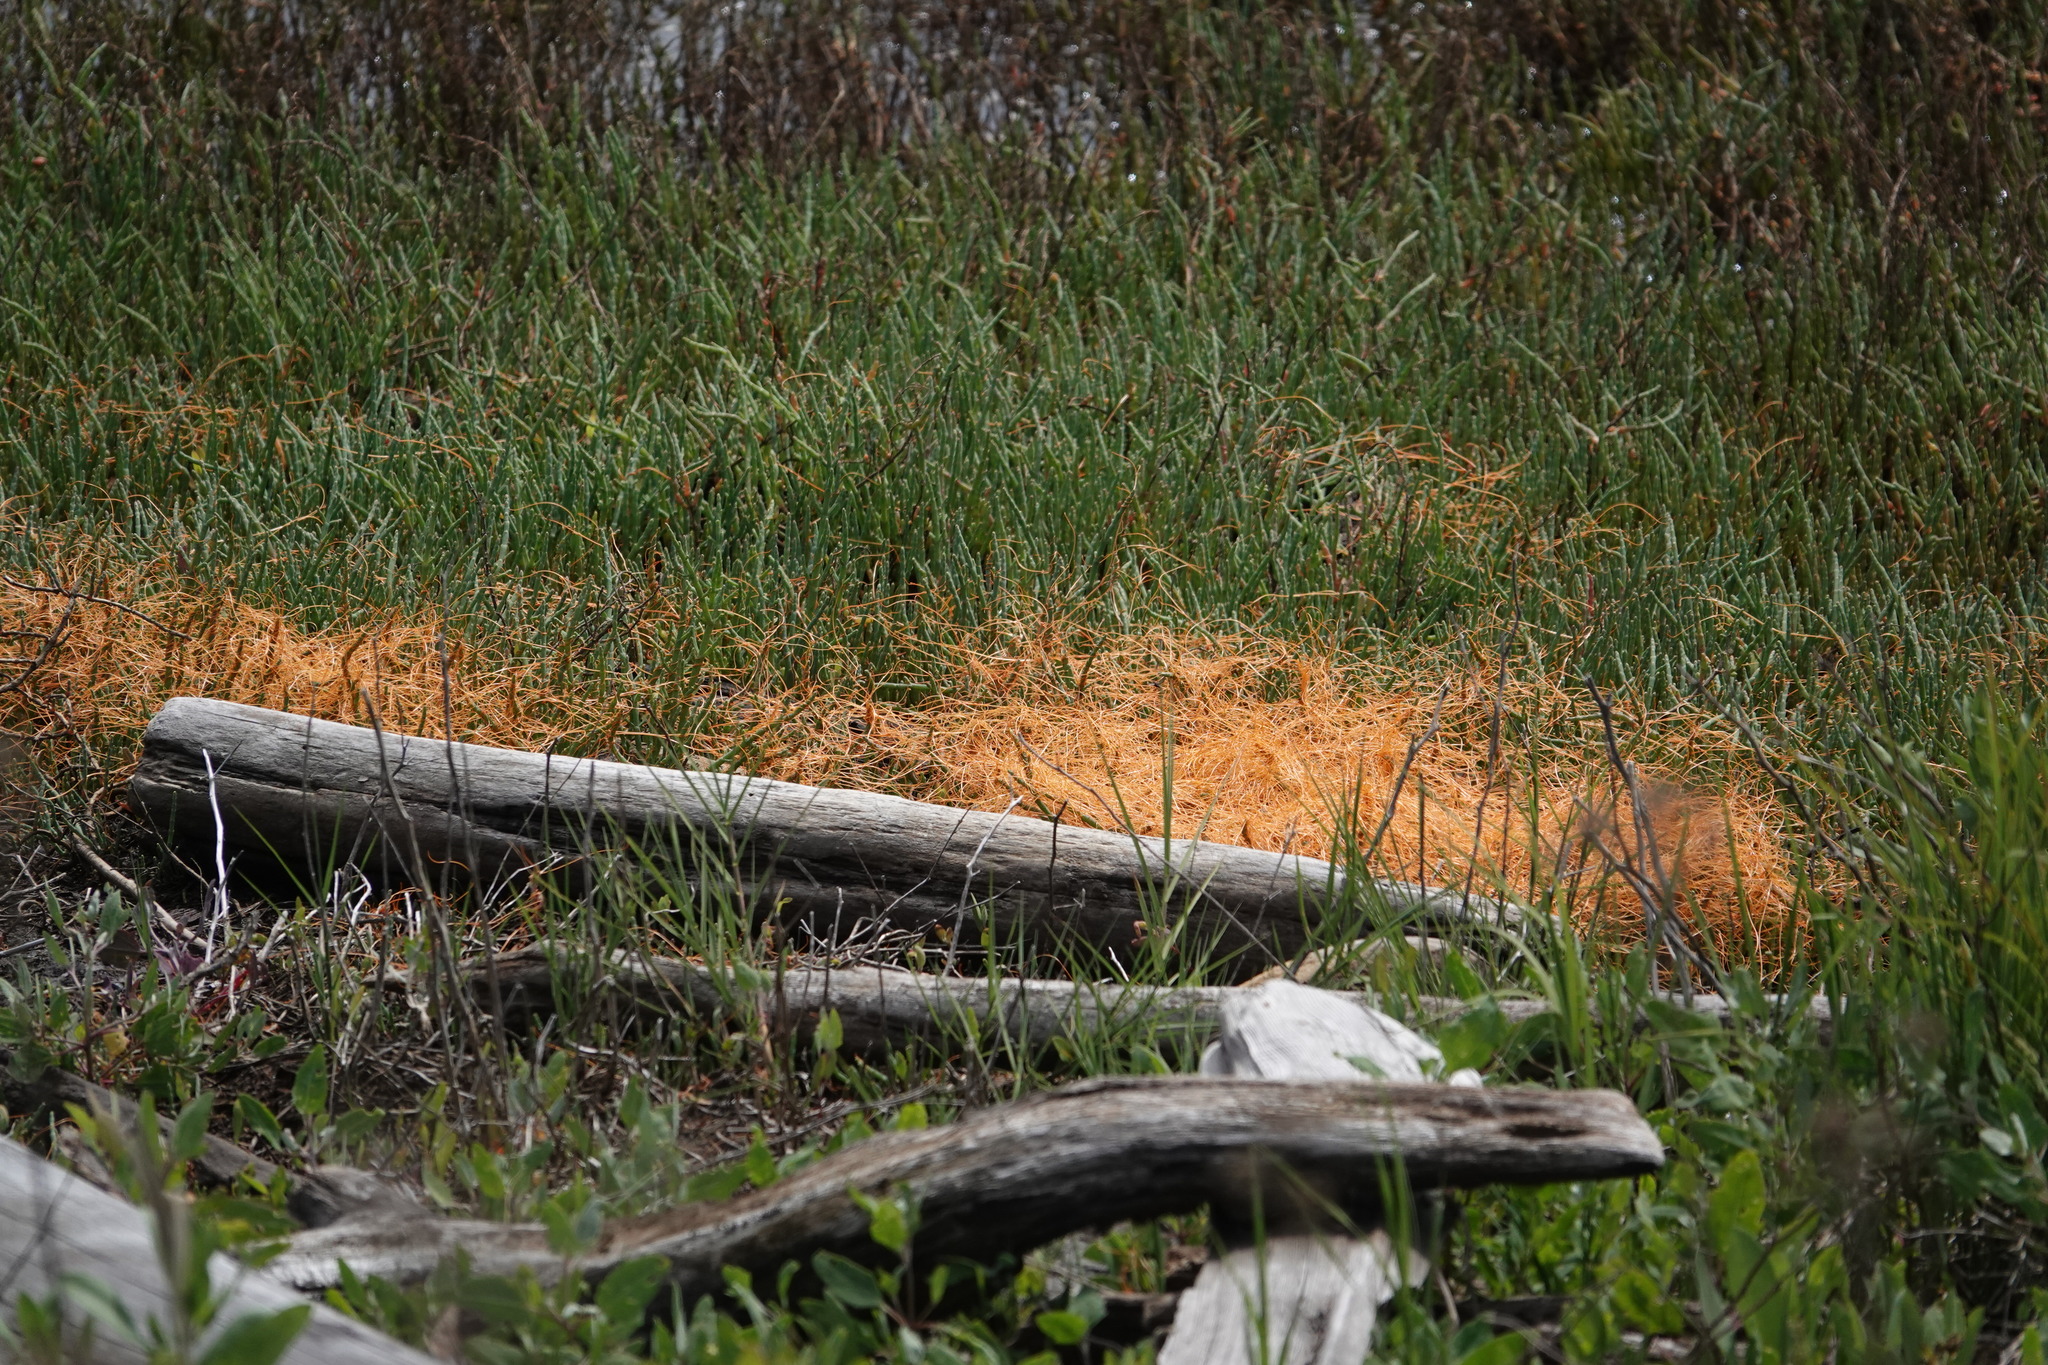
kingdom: Plantae
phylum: Tracheophyta
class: Magnoliopsida
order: Caryophyllales
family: Amaranthaceae
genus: Salicornia
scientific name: Salicornia pacifica
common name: Pacific glasswort
